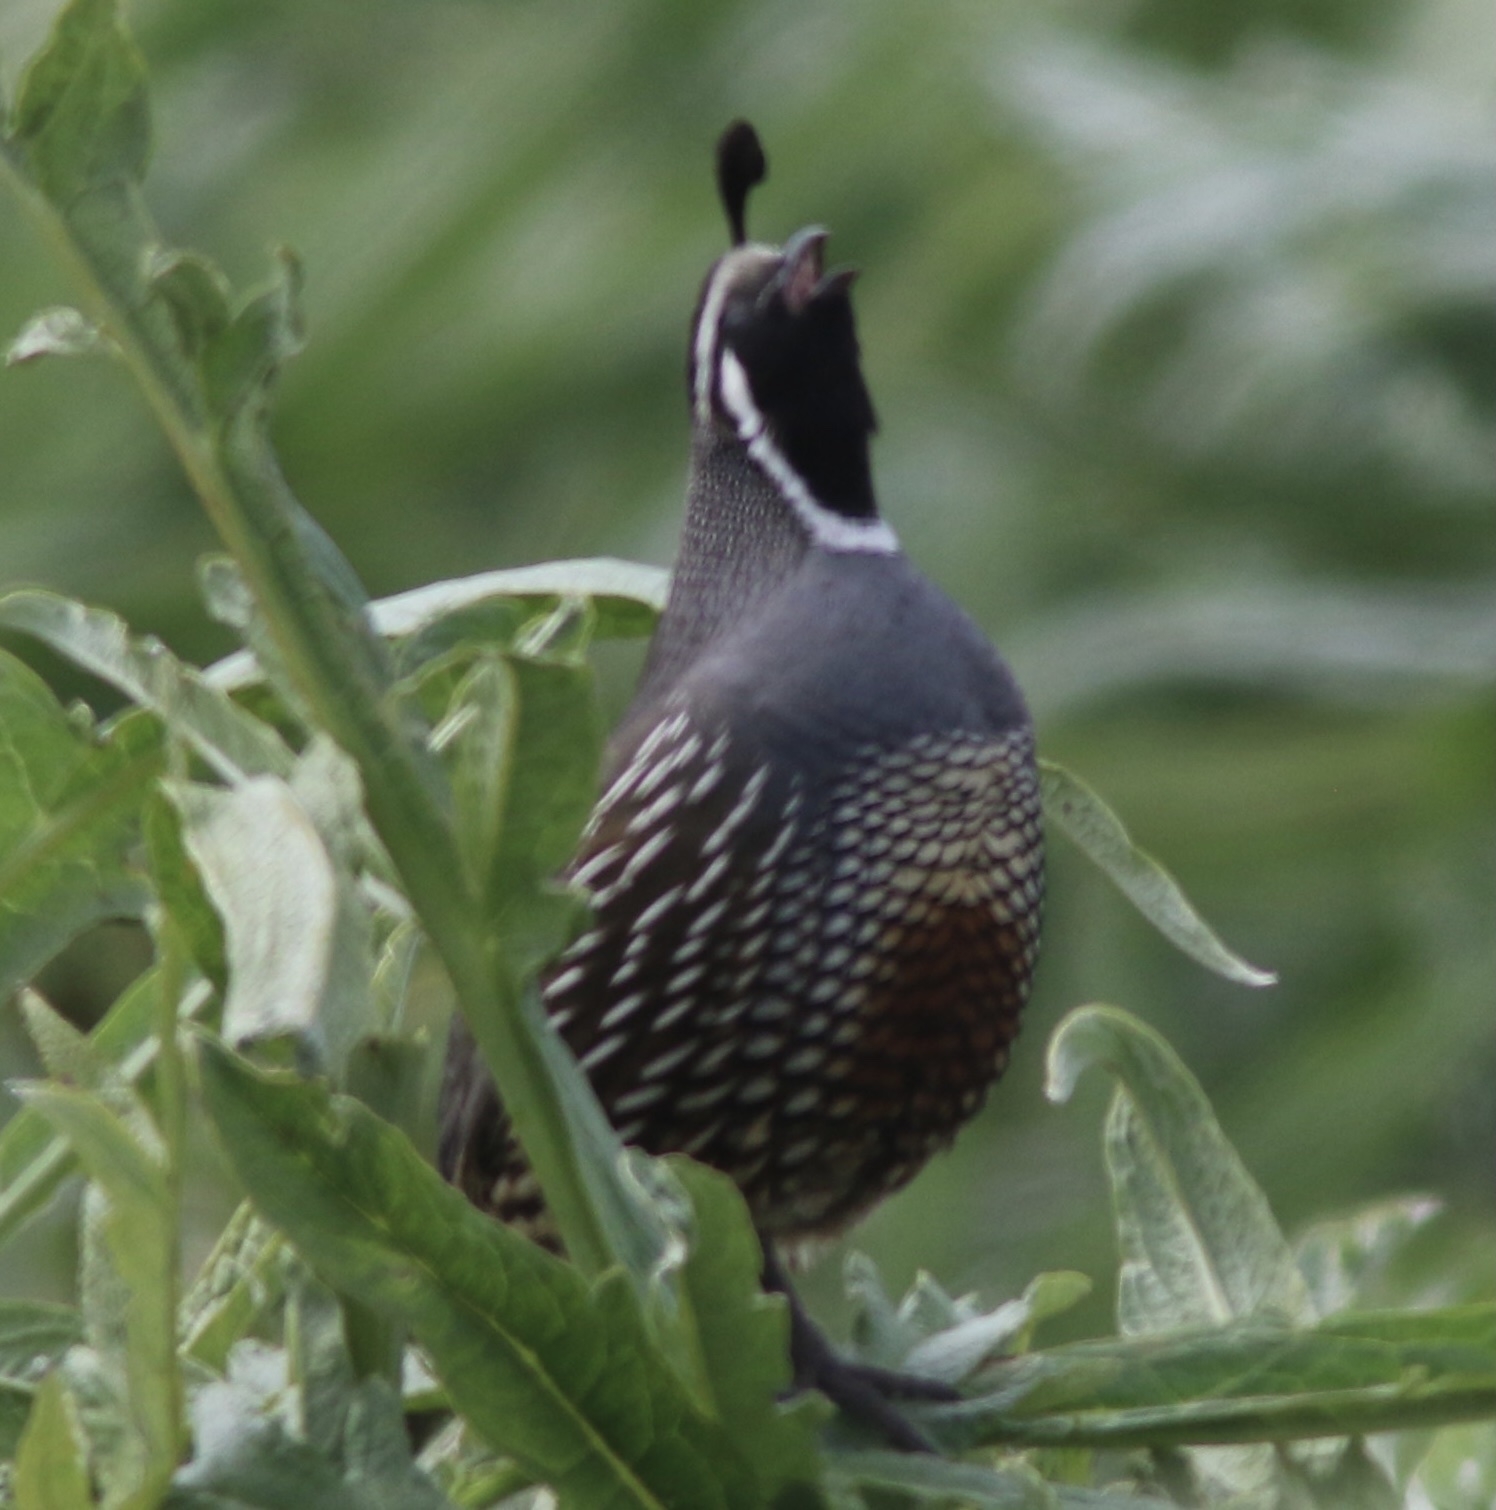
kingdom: Animalia
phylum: Chordata
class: Aves
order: Galliformes
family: Odontophoridae
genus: Callipepla
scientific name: Callipepla californica
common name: California quail
